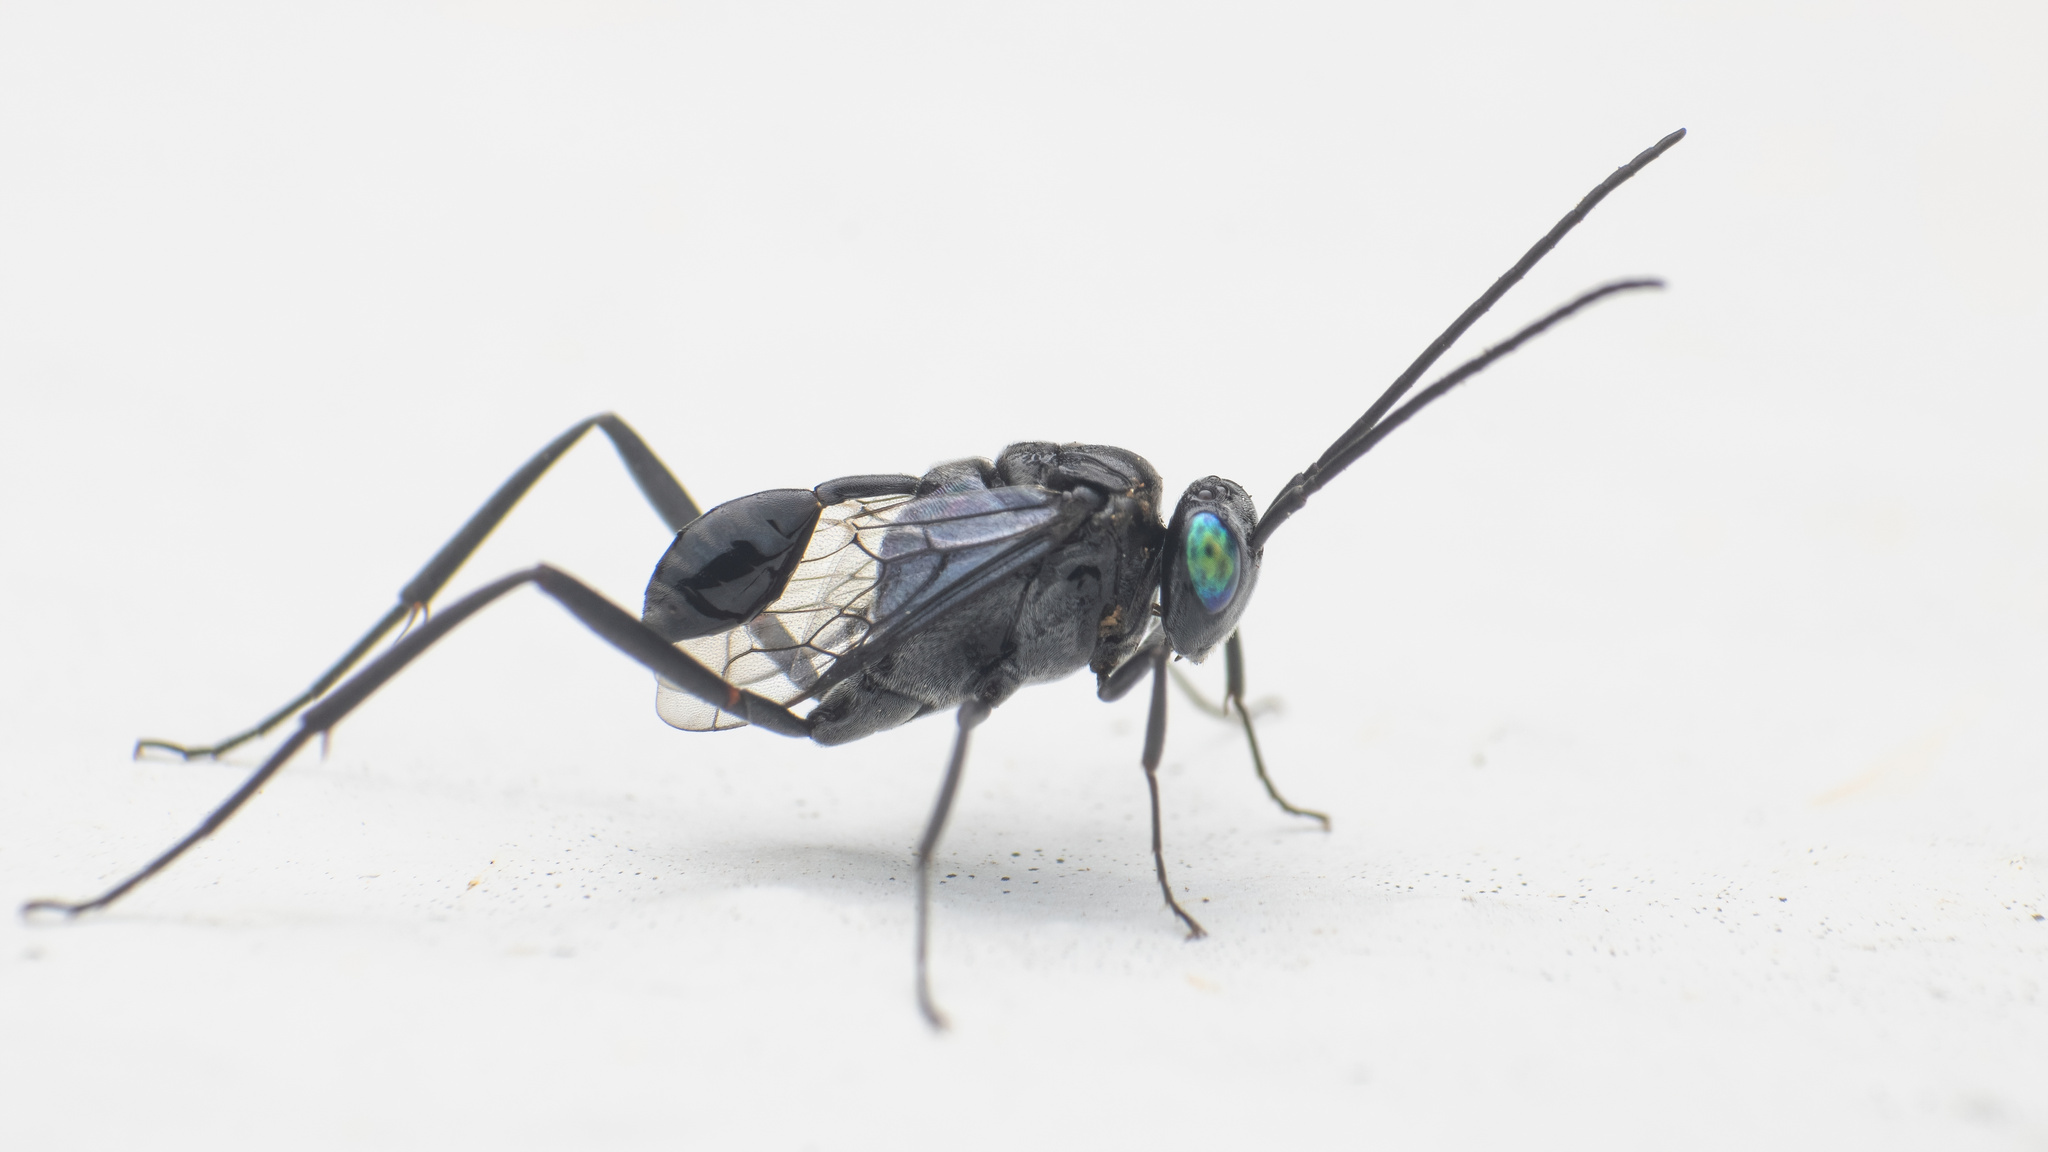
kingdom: Animalia
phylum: Arthropoda
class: Insecta
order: Hymenoptera
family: Evaniidae
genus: Evania
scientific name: Evania appendigaster
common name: Ensign wasp
